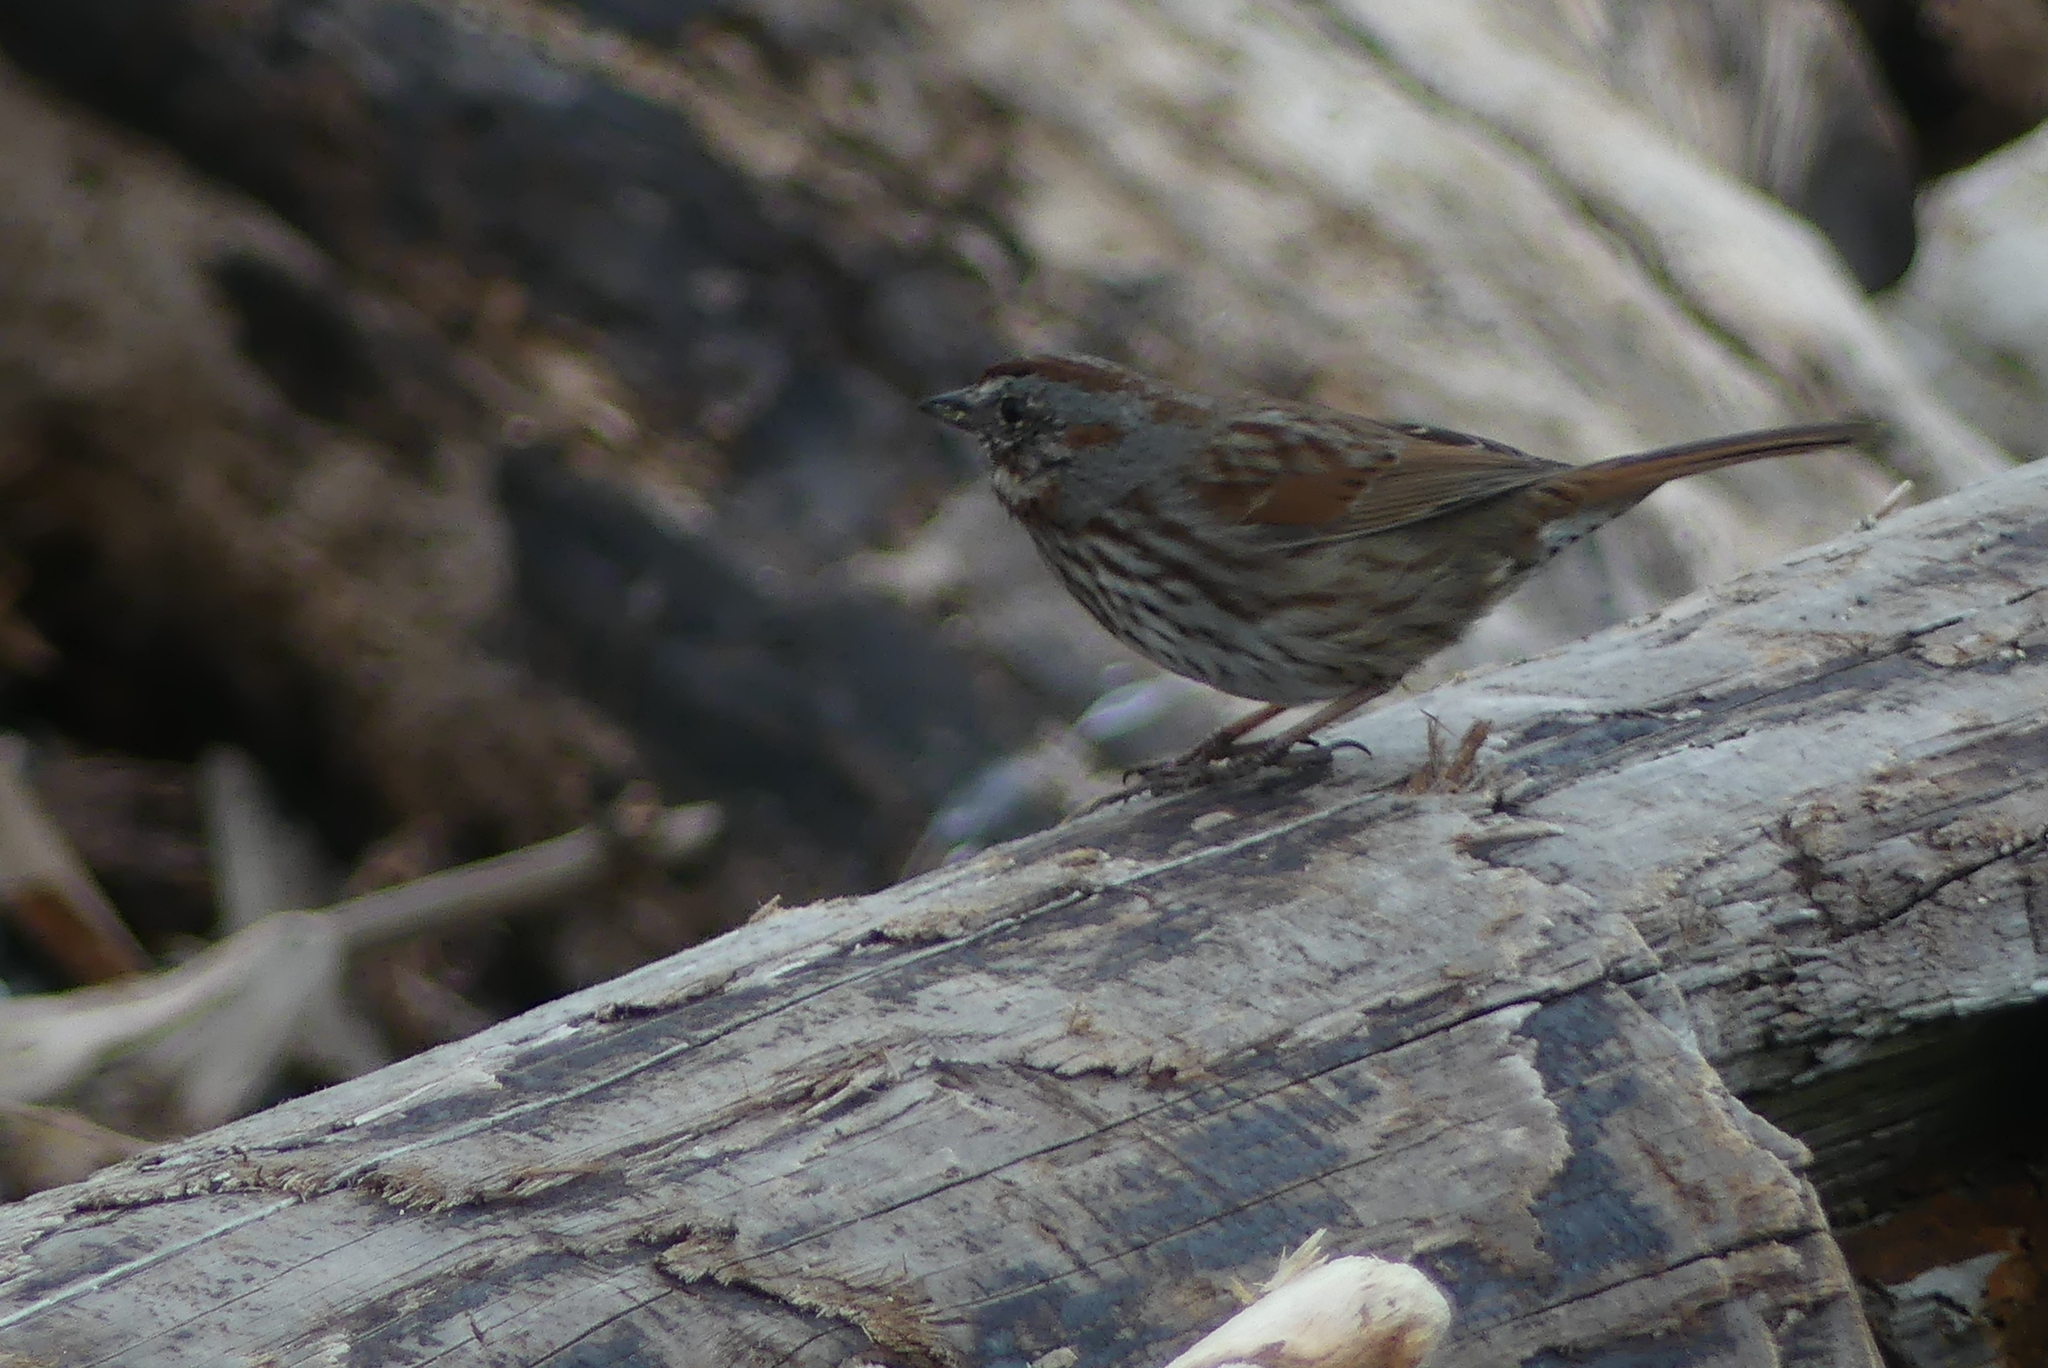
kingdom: Animalia
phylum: Chordata
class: Aves
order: Passeriformes
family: Passerellidae
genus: Melospiza
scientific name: Melospiza melodia
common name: Song sparrow
